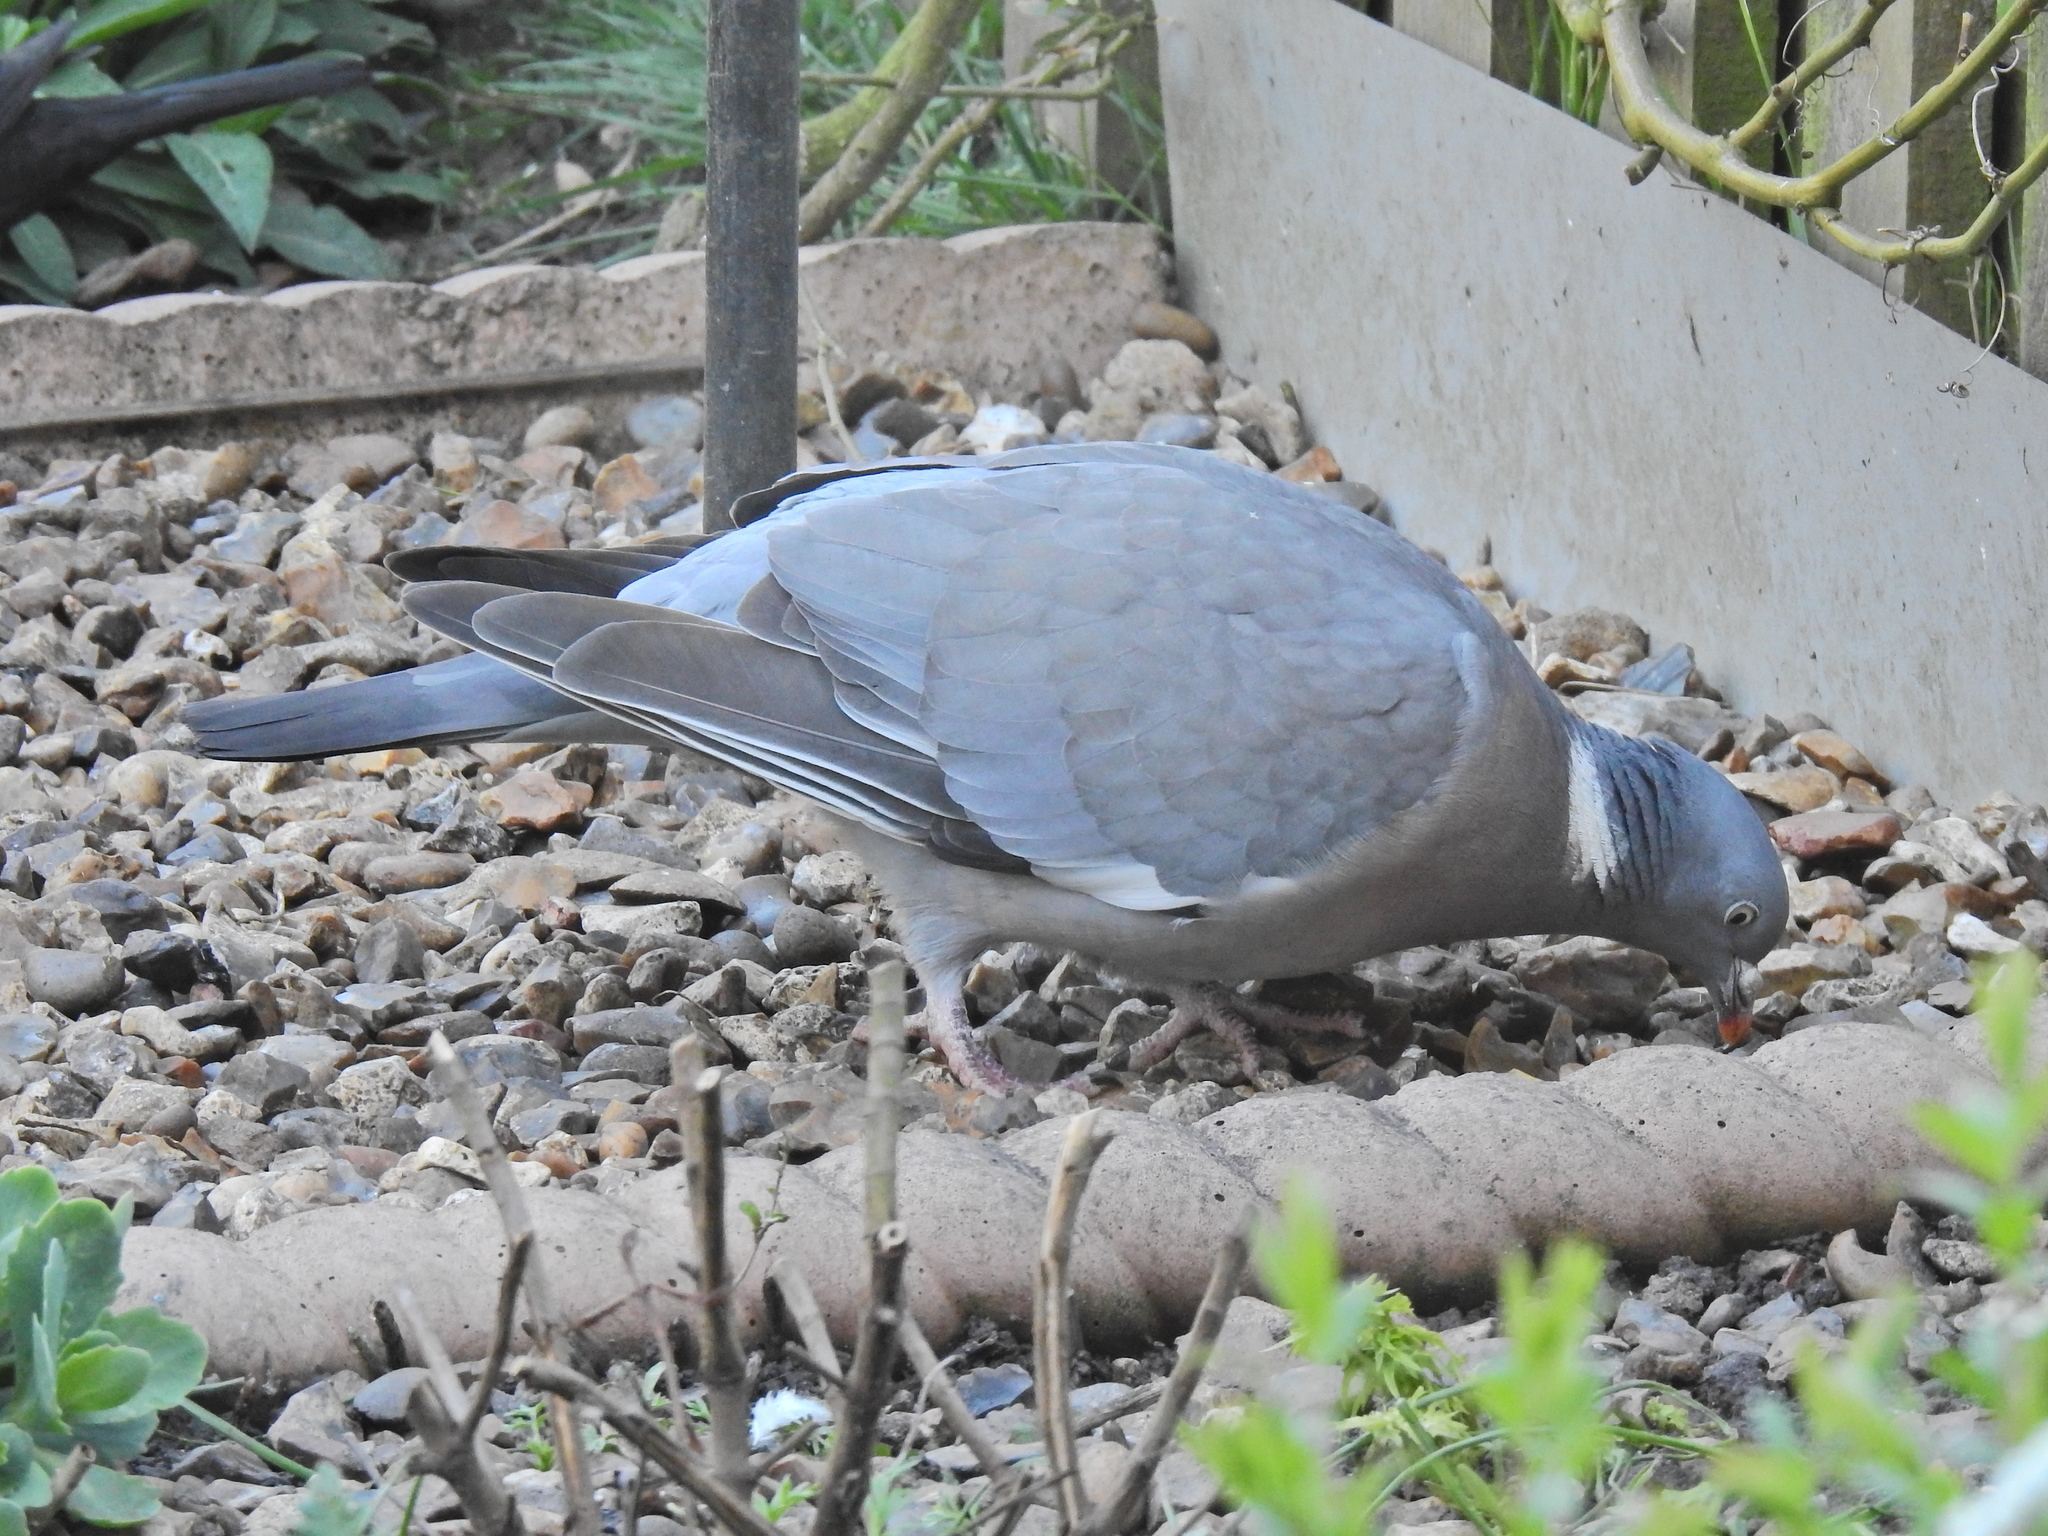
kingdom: Animalia
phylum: Chordata
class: Aves
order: Columbiformes
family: Columbidae
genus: Columba
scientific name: Columba palumbus
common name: Common wood pigeon
